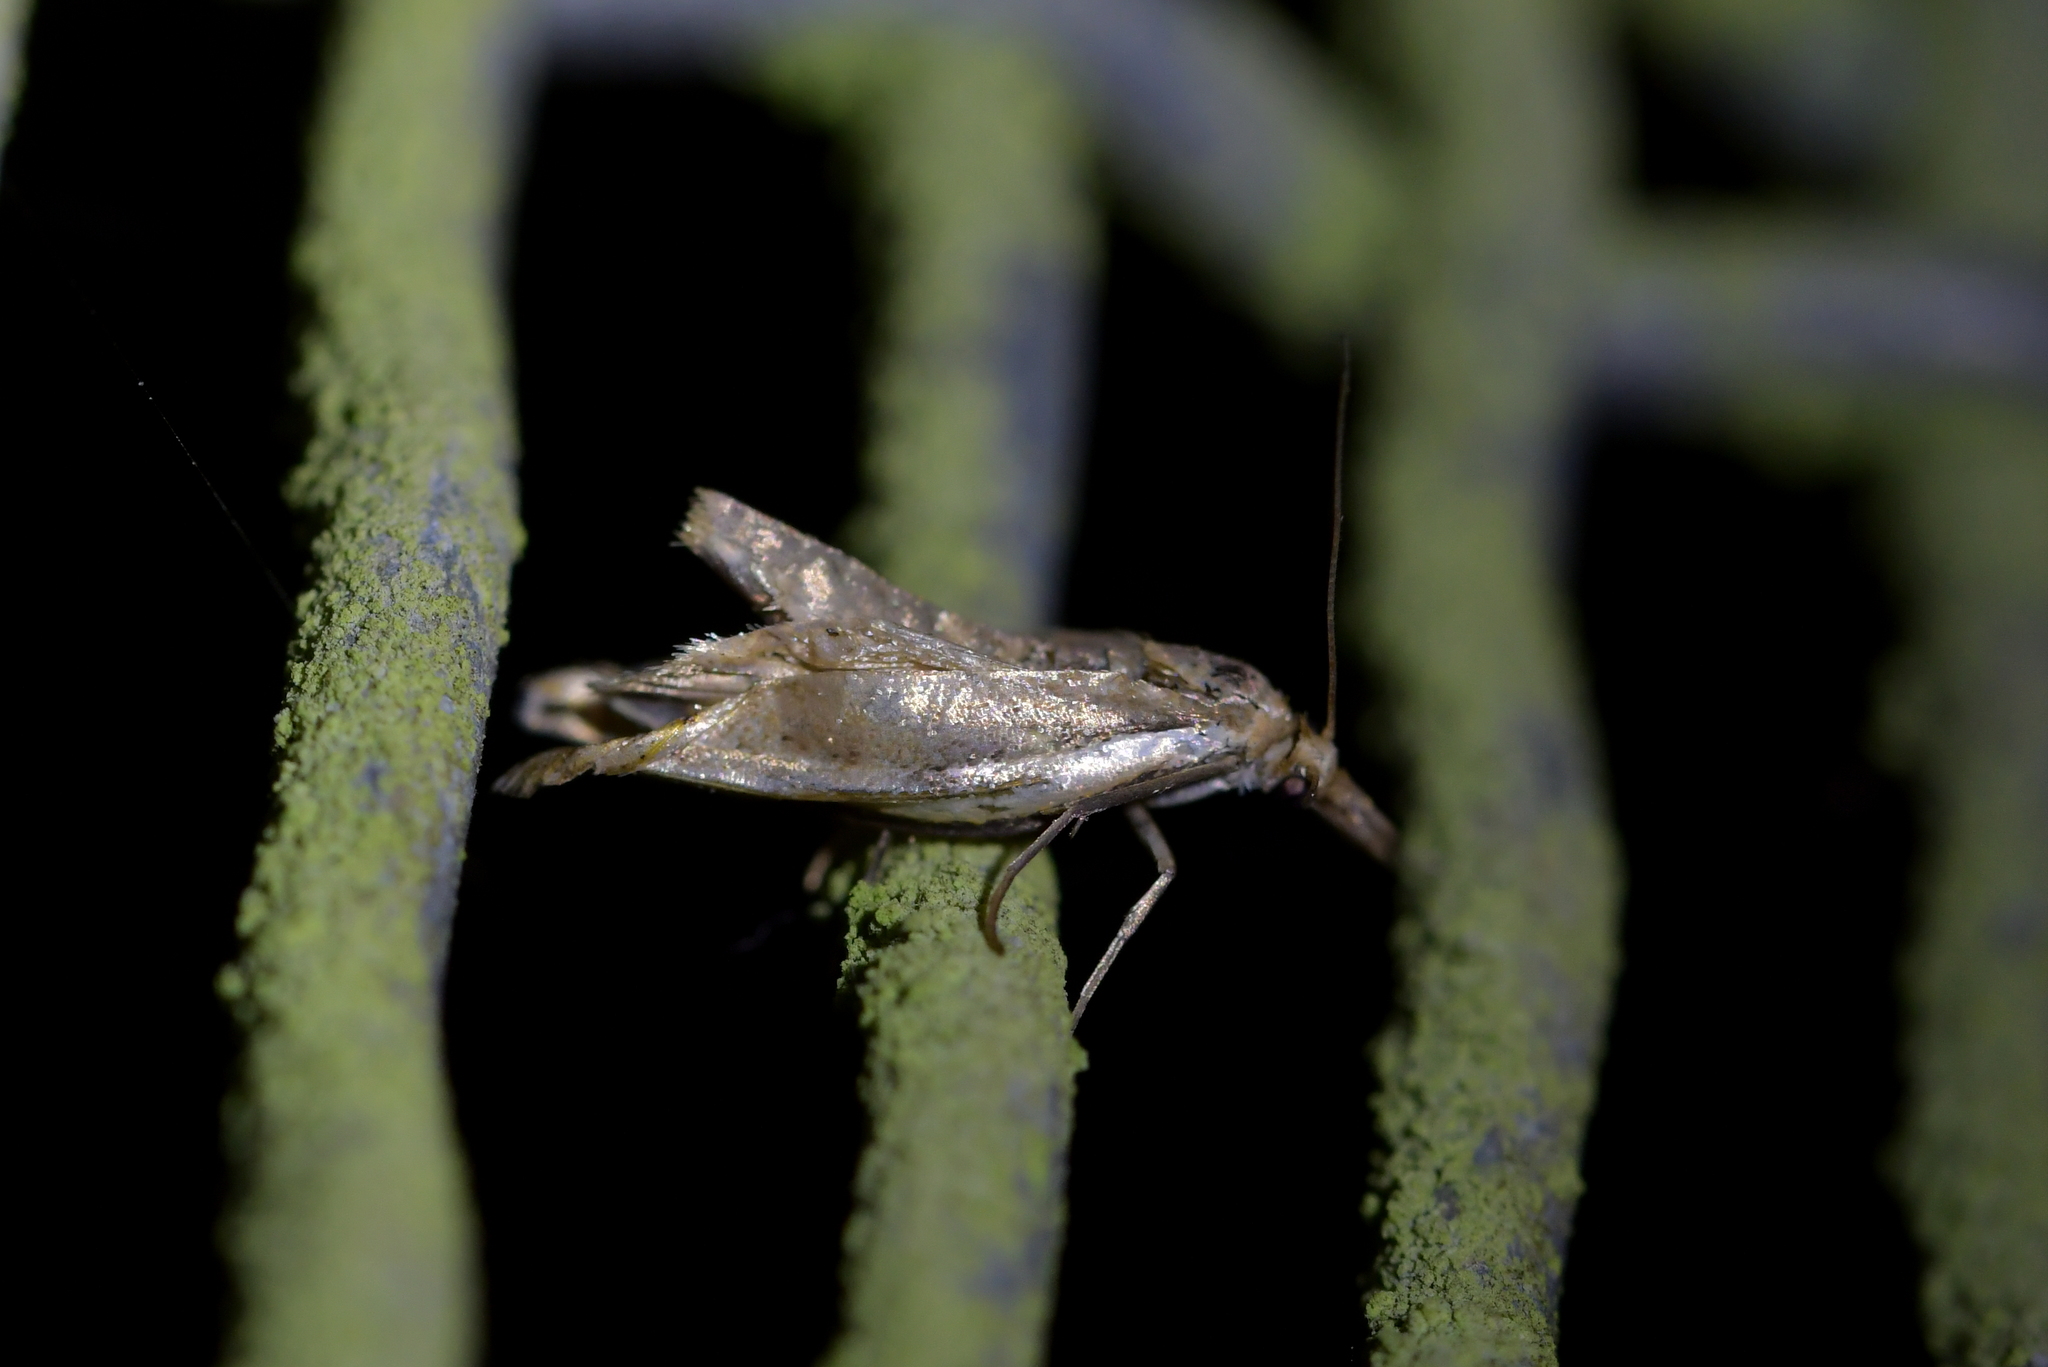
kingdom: Animalia
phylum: Arthropoda
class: Insecta
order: Lepidoptera
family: Crambidae
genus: Orocrambus
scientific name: Orocrambus flexuosellus
